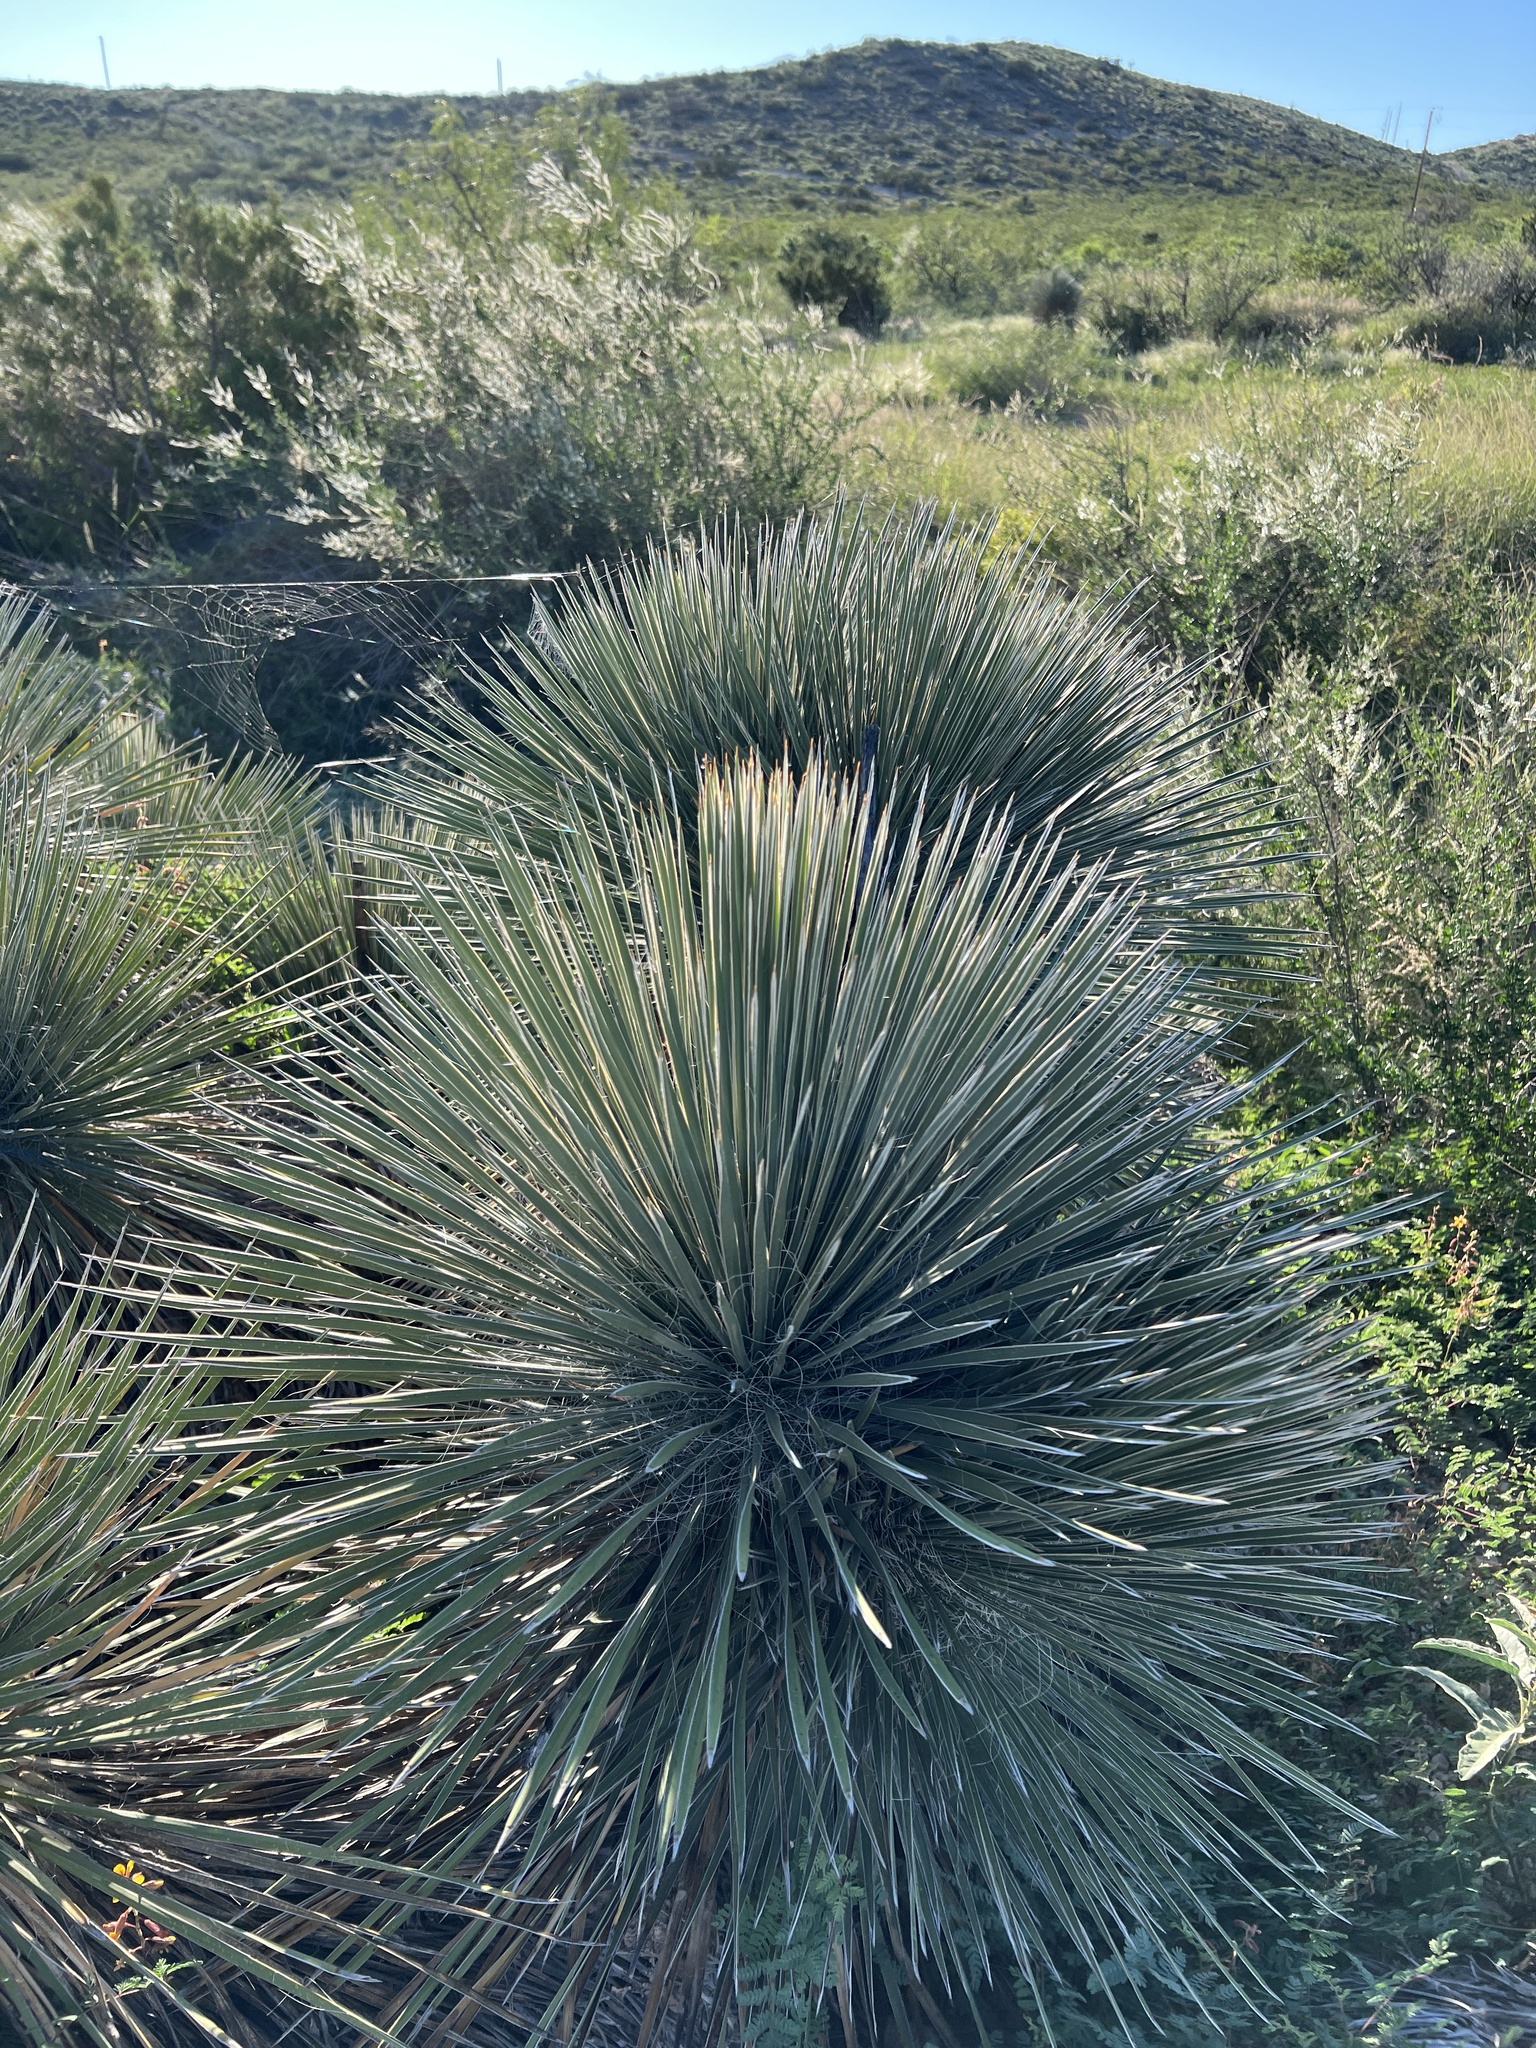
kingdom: Plantae
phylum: Tracheophyta
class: Liliopsida
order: Asparagales
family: Asparagaceae
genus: Yucca
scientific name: Yucca elata
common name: Palmella
